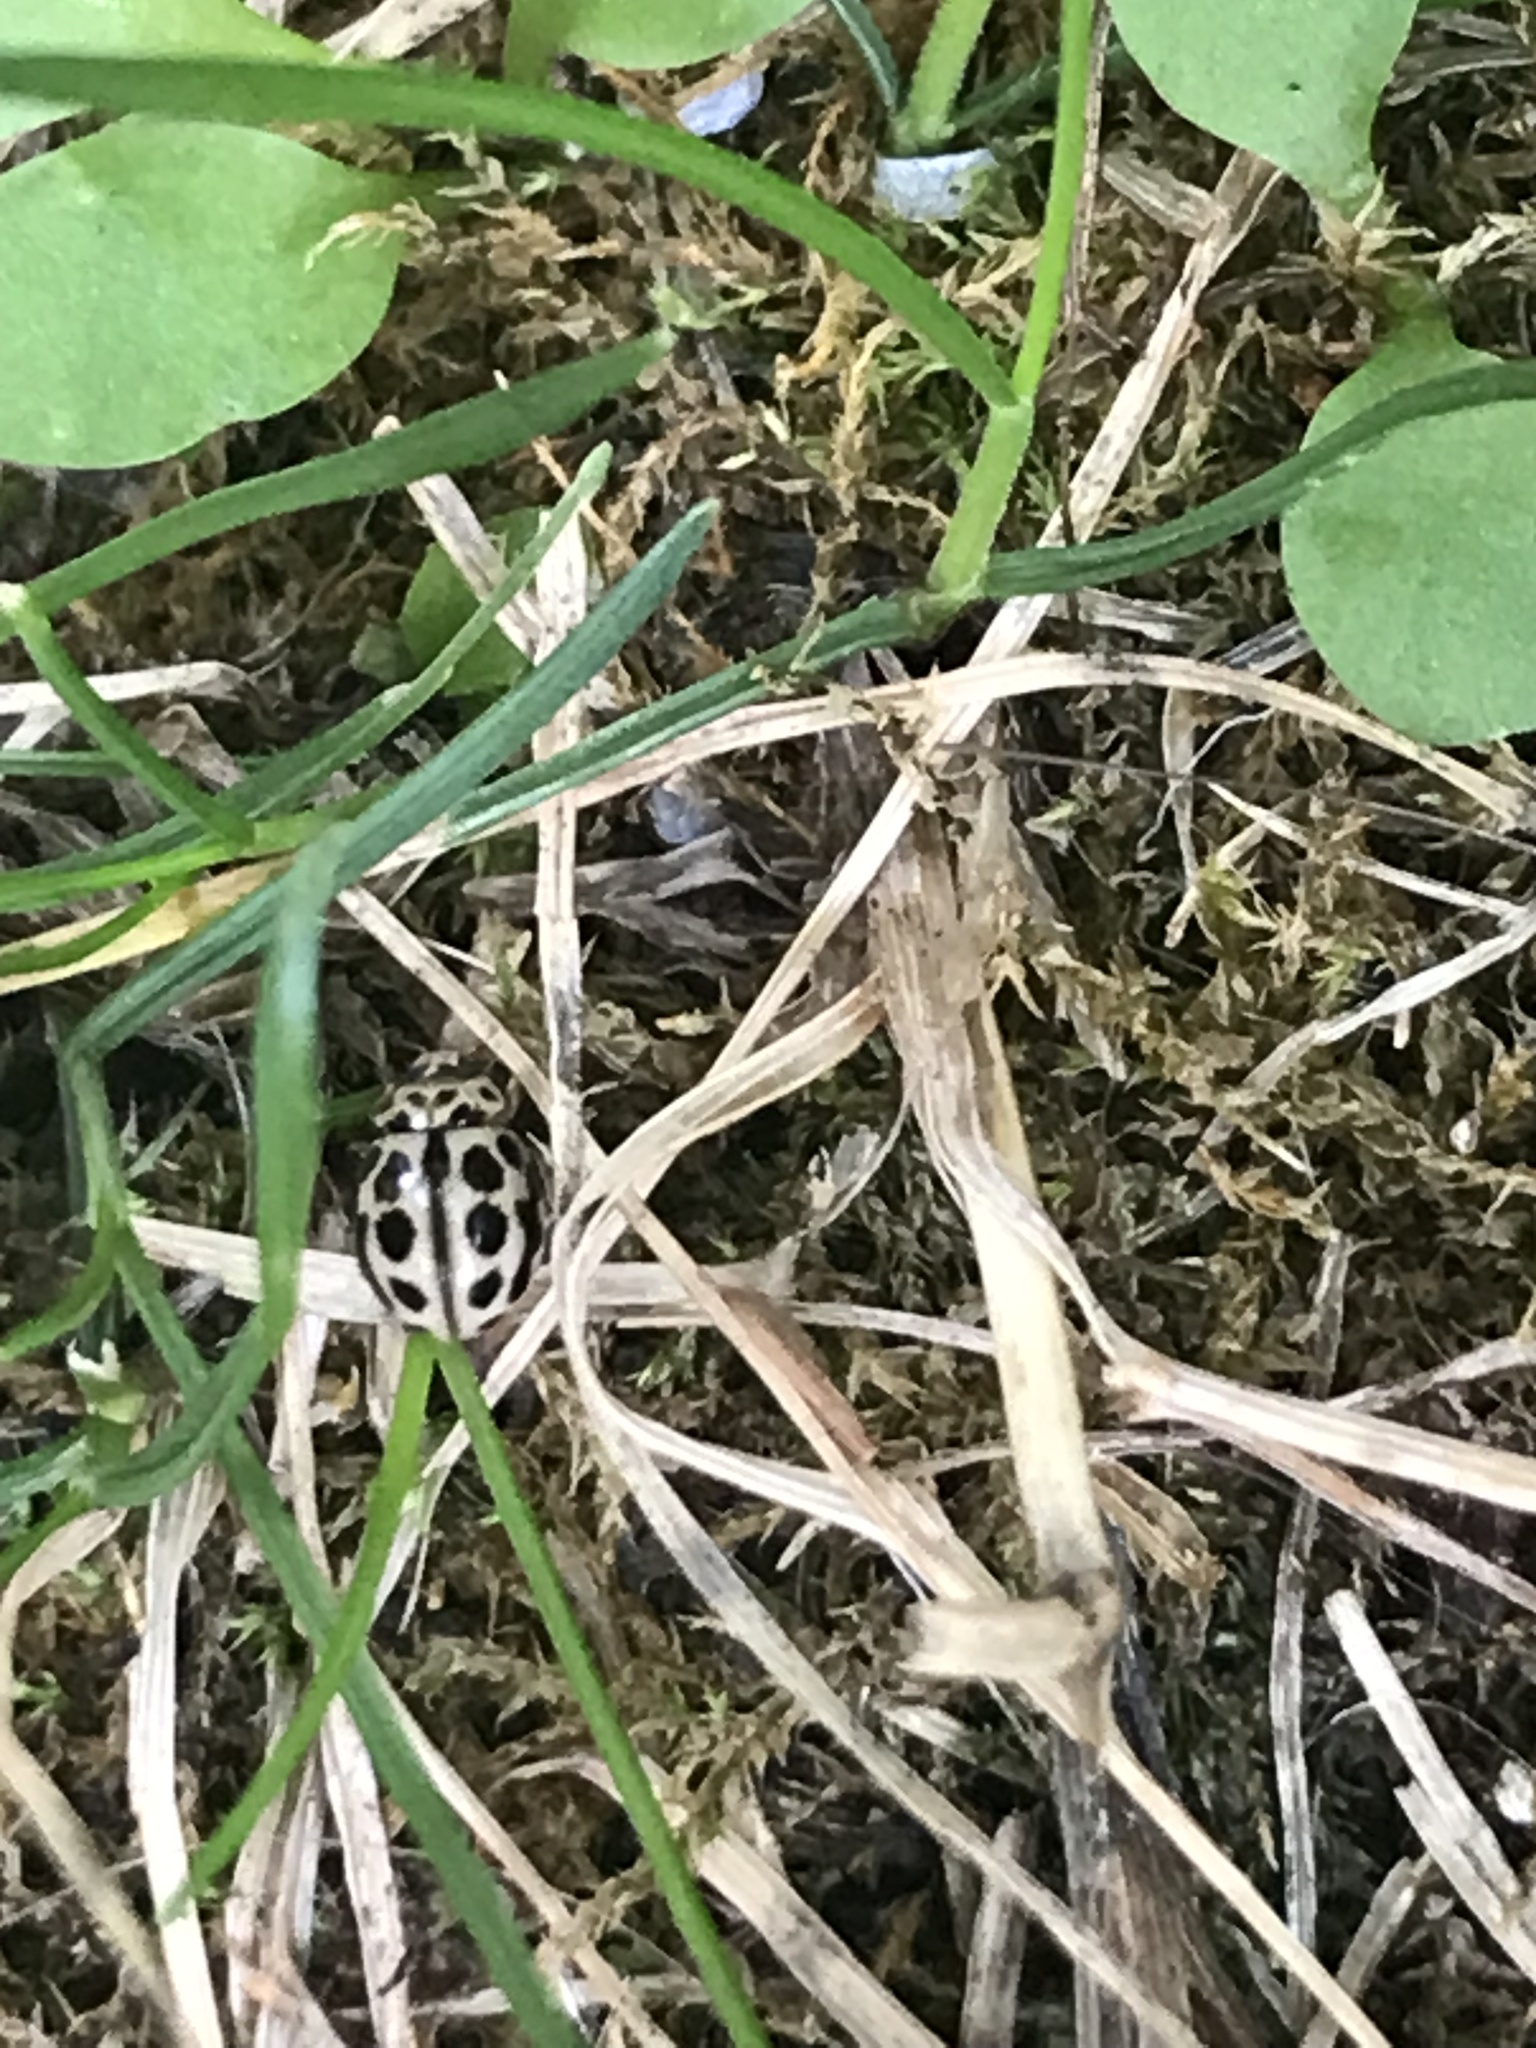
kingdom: Animalia
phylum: Arthropoda
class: Insecta
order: Coleoptera
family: Coccinellidae
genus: Tytthaspis
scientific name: Tytthaspis sedecimpunctata
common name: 16-spot ladybird
